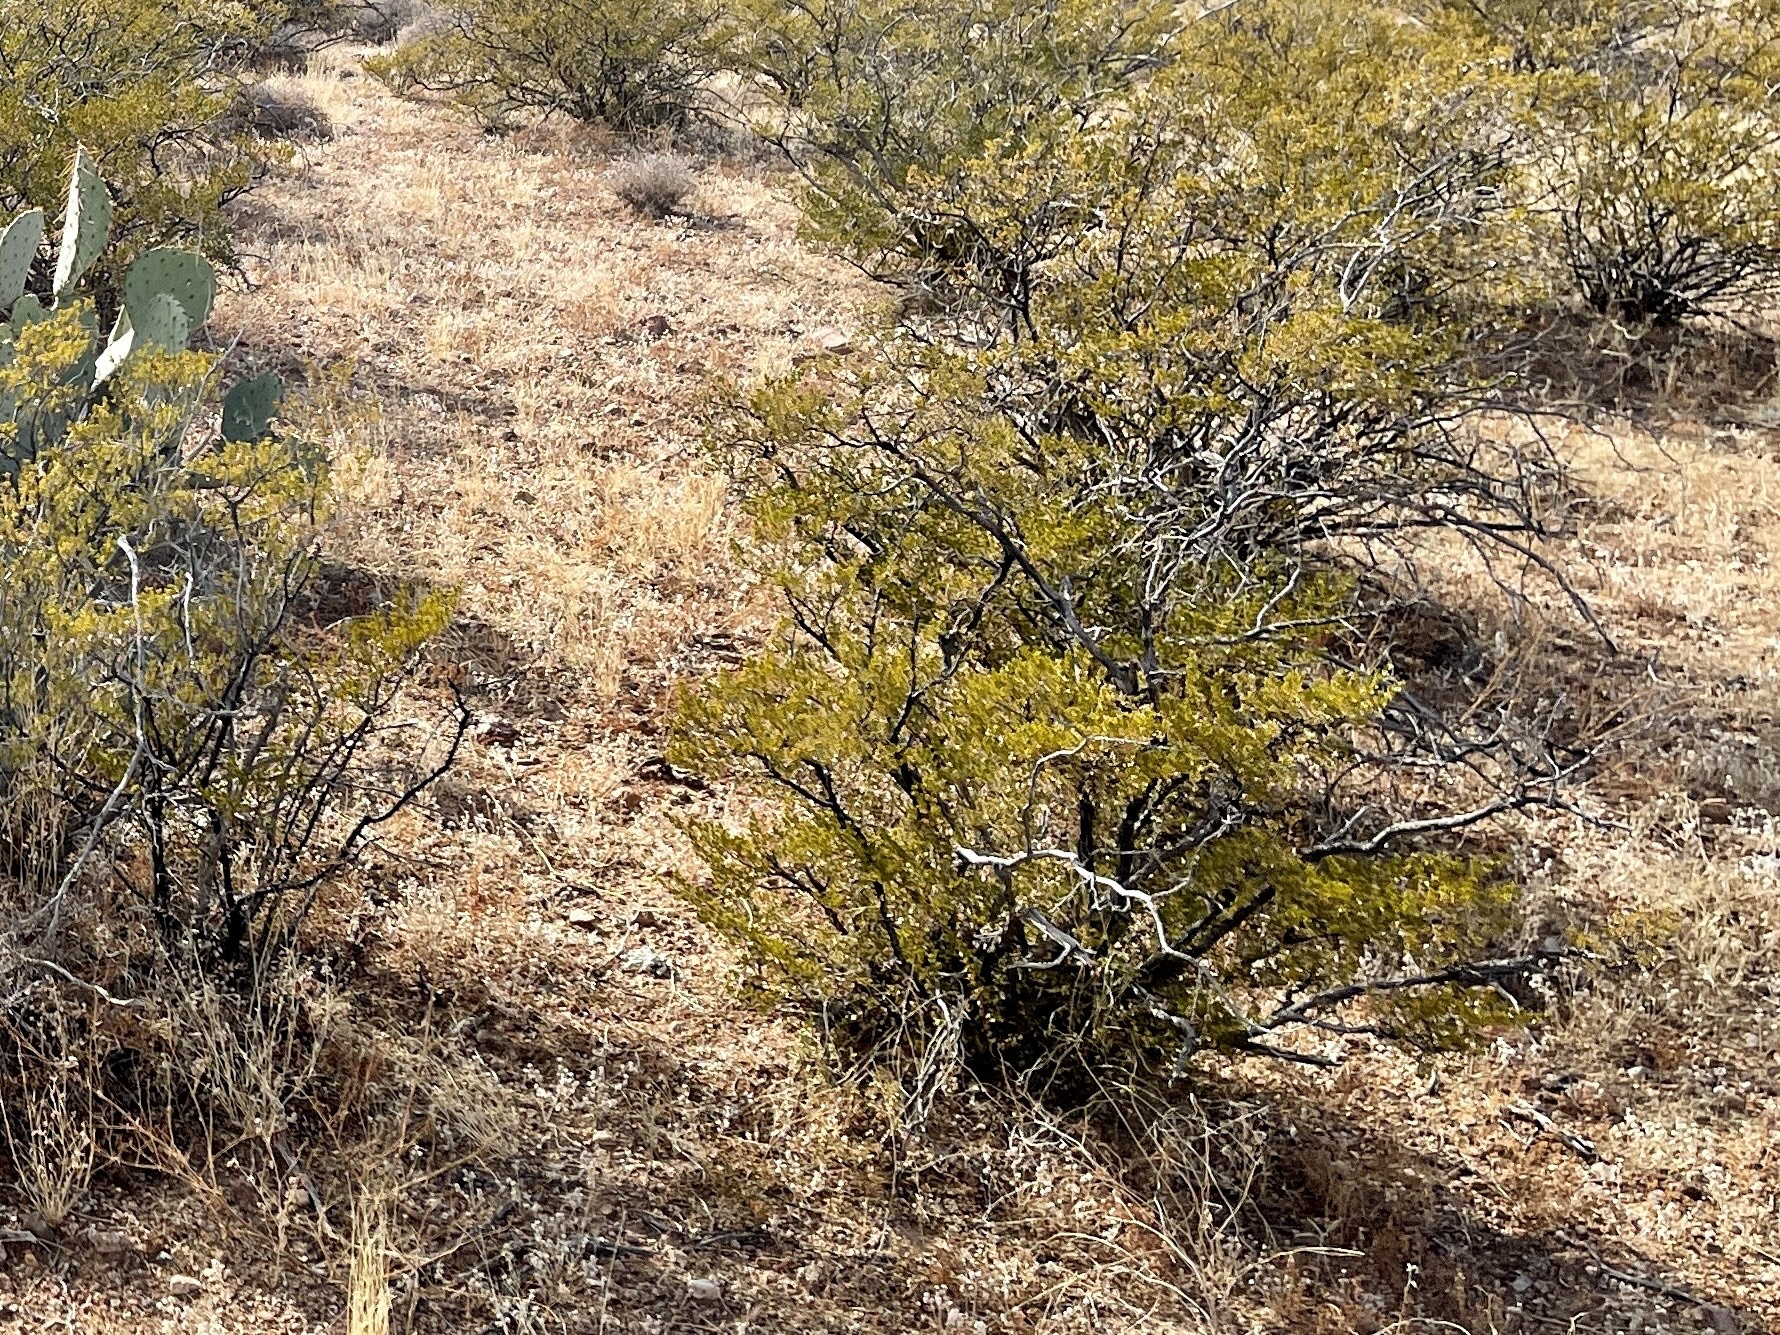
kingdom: Plantae
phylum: Tracheophyta
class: Magnoliopsida
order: Zygophyllales
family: Zygophyllaceae
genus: Larrea
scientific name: Larrea tridentata
